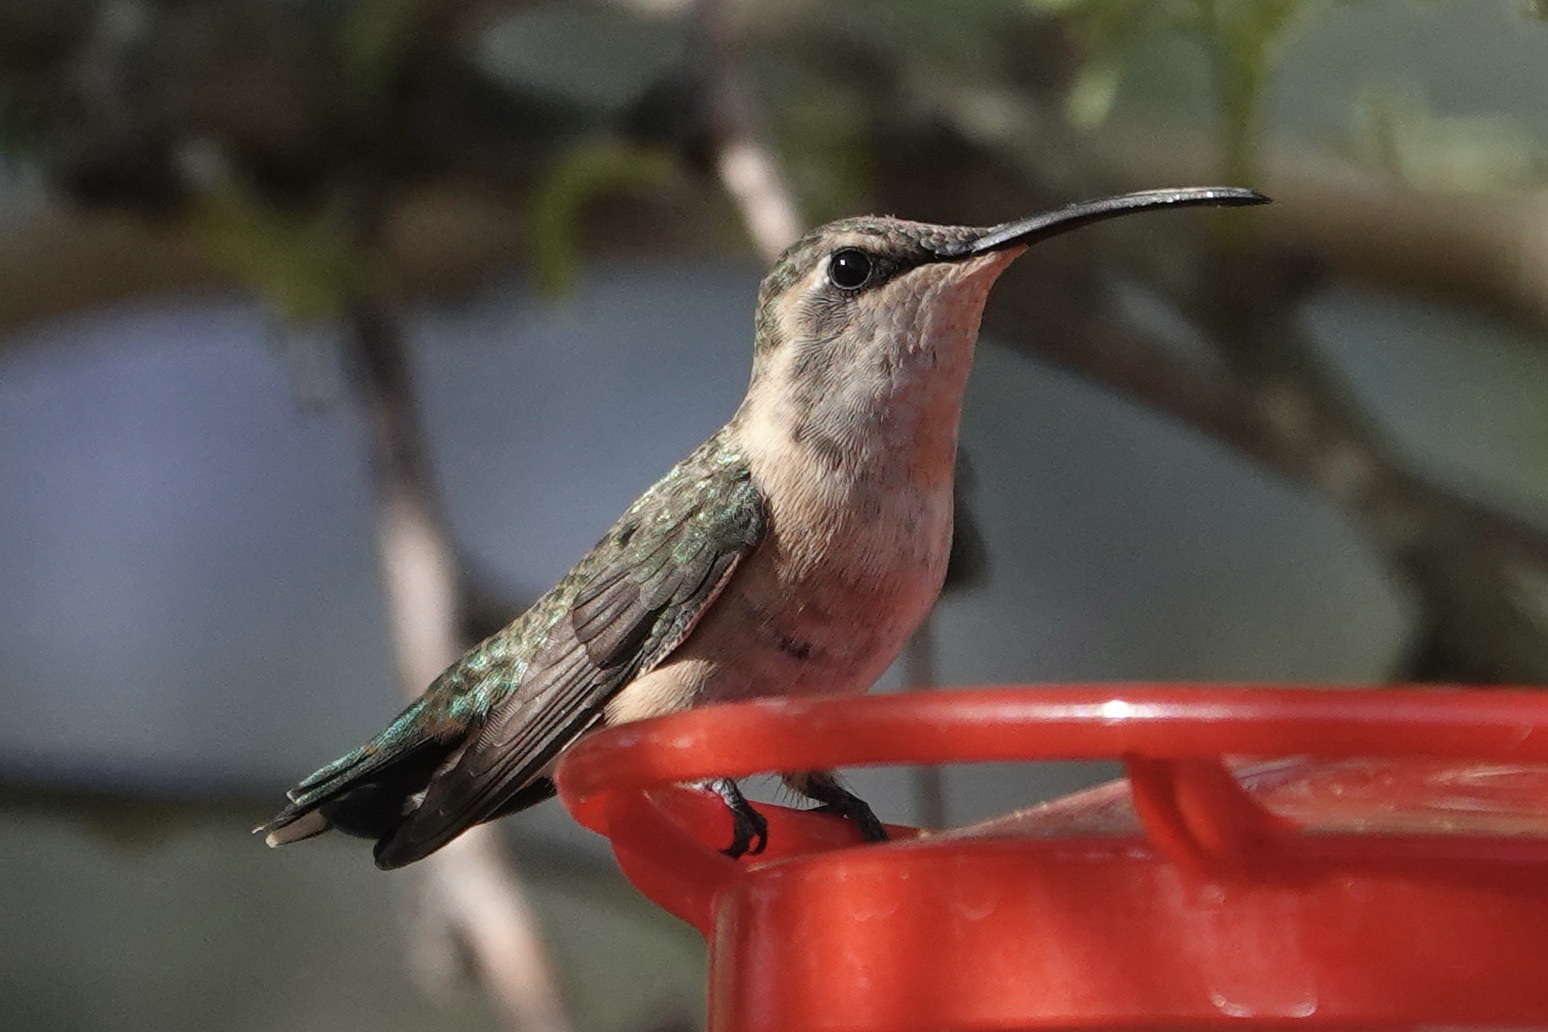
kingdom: Animalia
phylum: Chordata
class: Aves
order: Apodiformes
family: Trochilidae
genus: Calothorax
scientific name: Calothorax lucifer
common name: Lucifer sheartail
